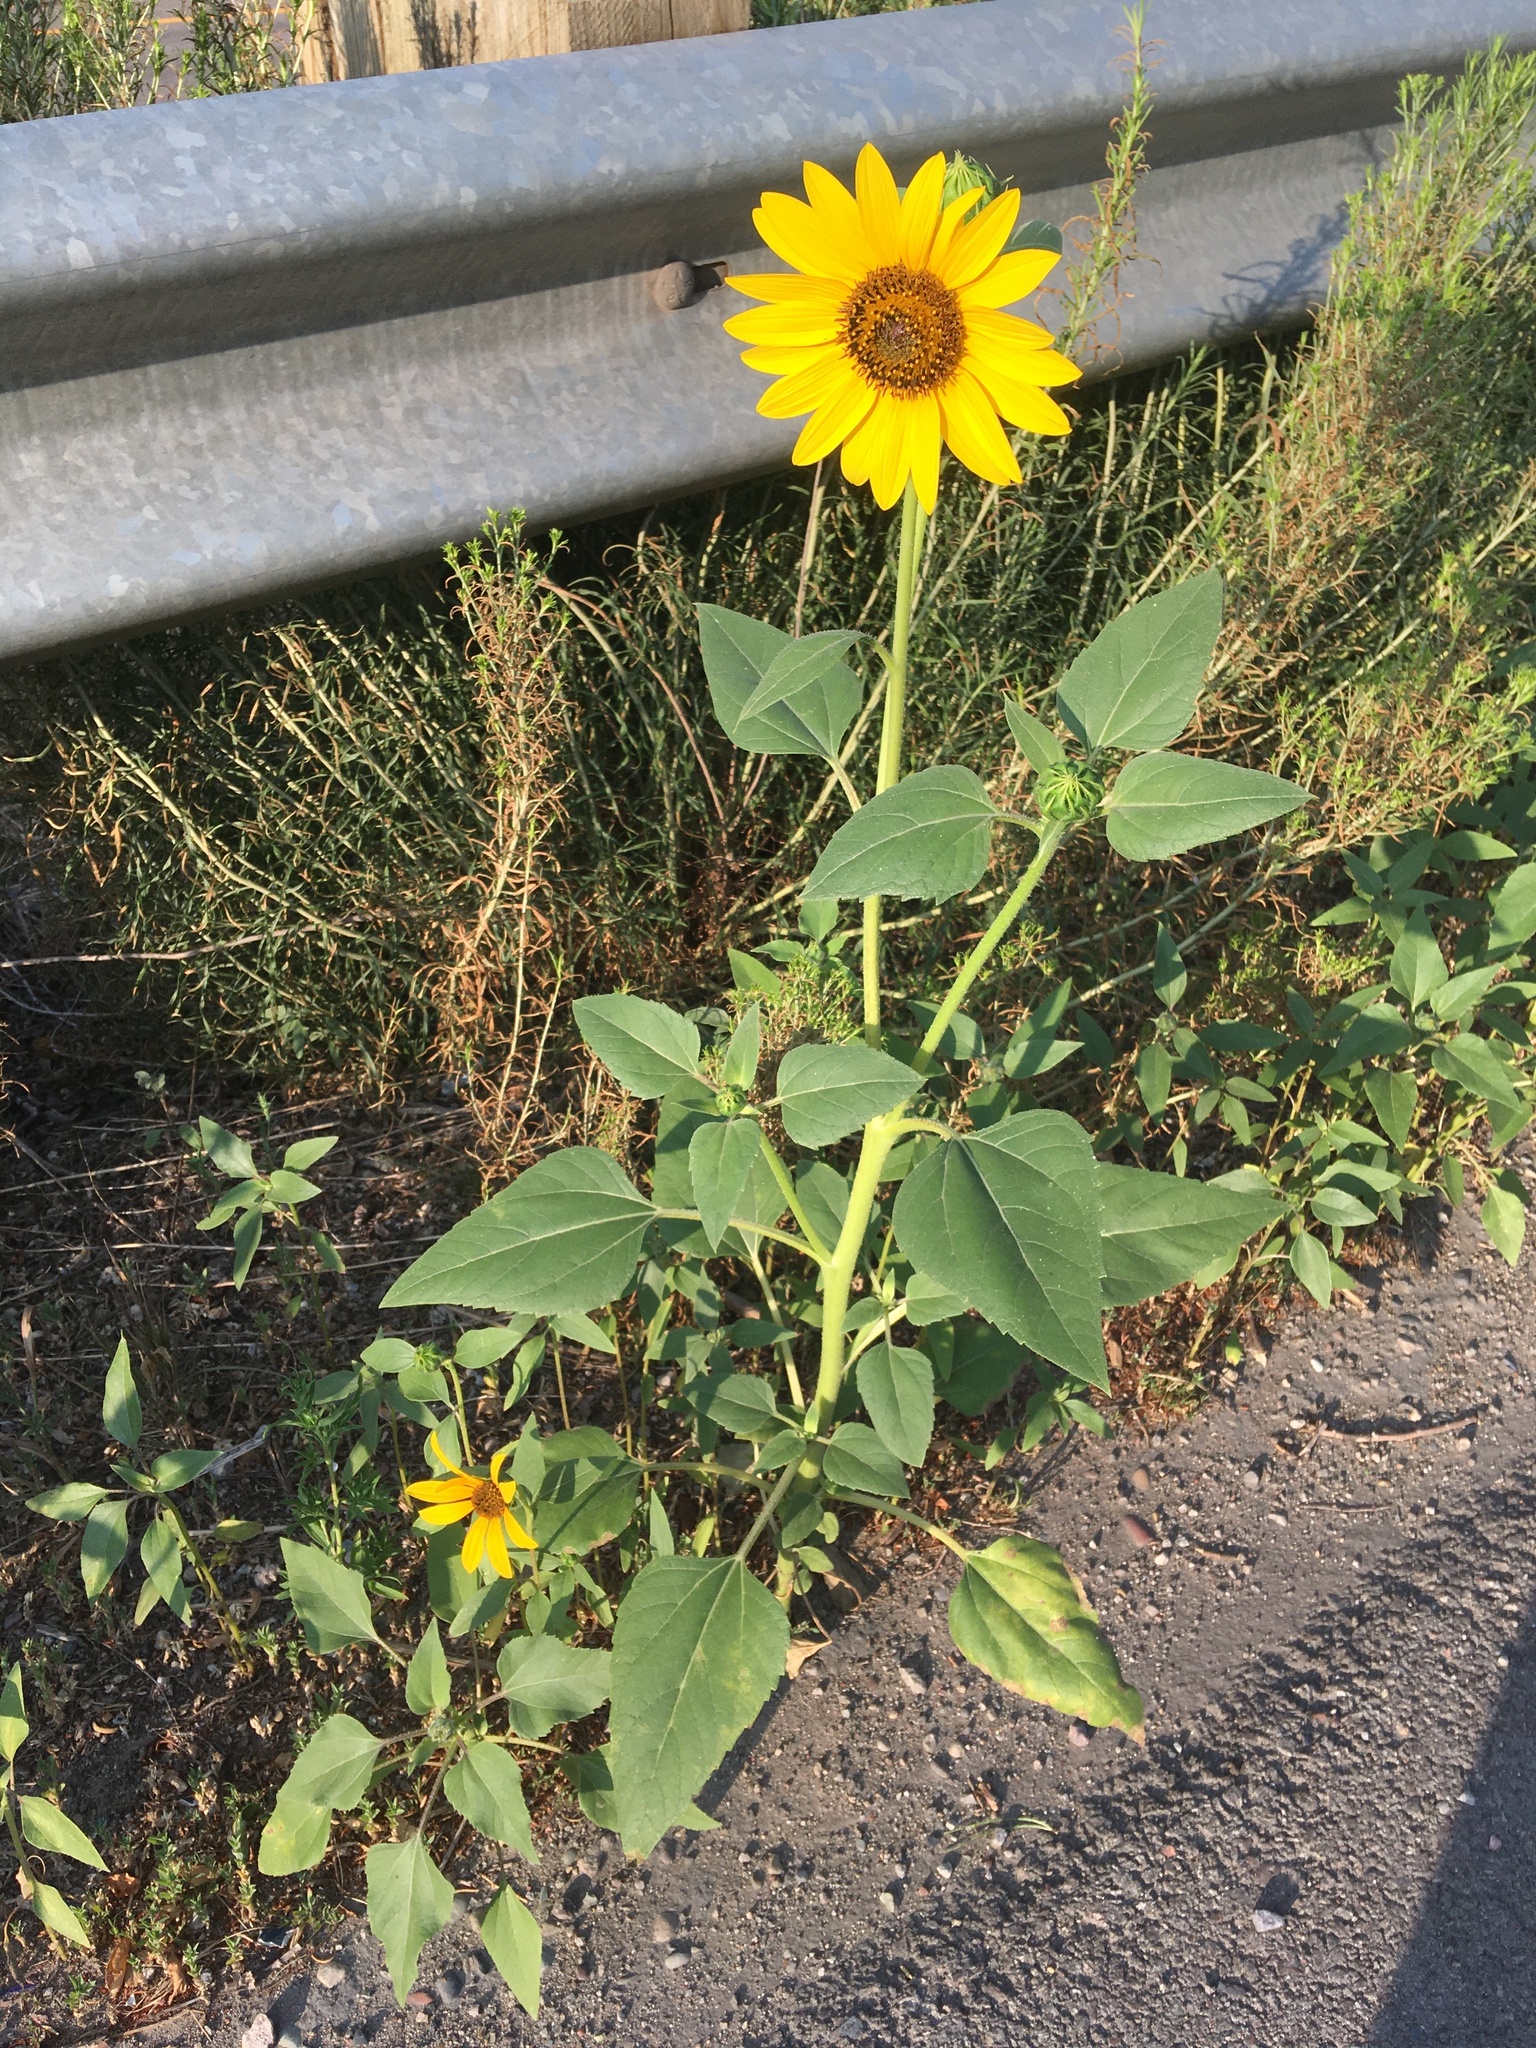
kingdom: Plantae
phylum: Tracheophyta
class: Magnoliopsida
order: Asterales
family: Asteraceae
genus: Helianthus
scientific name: Helianthus annuus
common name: Sunflower
